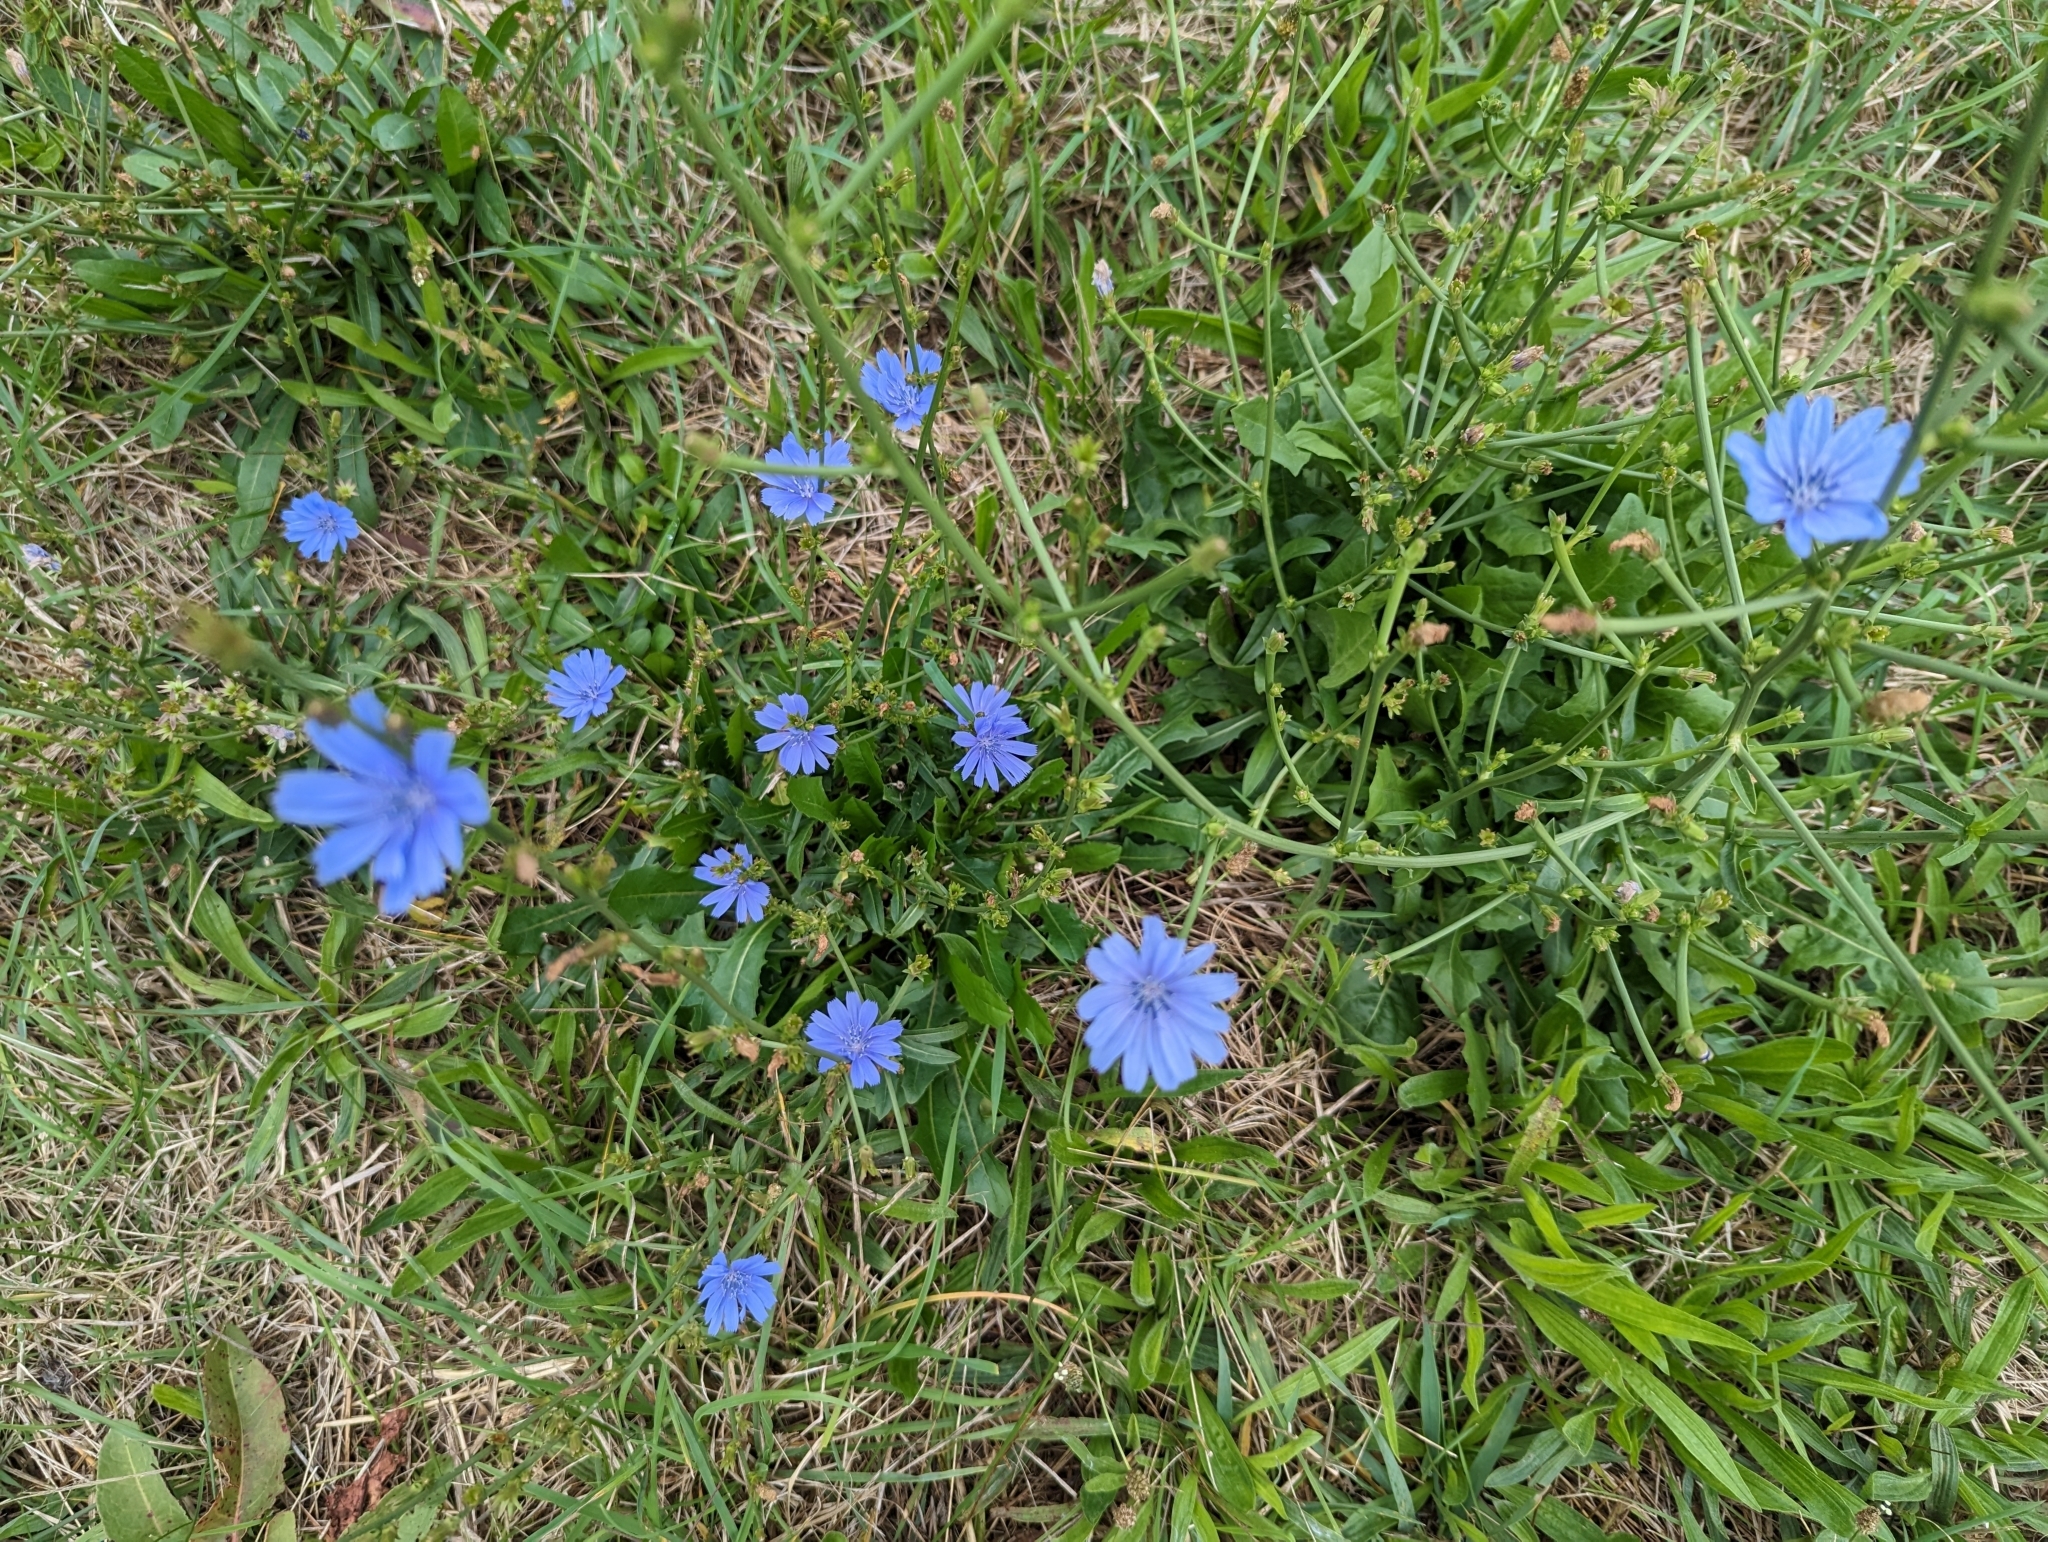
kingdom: Plantae
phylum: Tracheophyta
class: Magnoliopsida
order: Asterales
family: Asteraceae
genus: Cichorium
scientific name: Cichorium intybus
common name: Chicory
